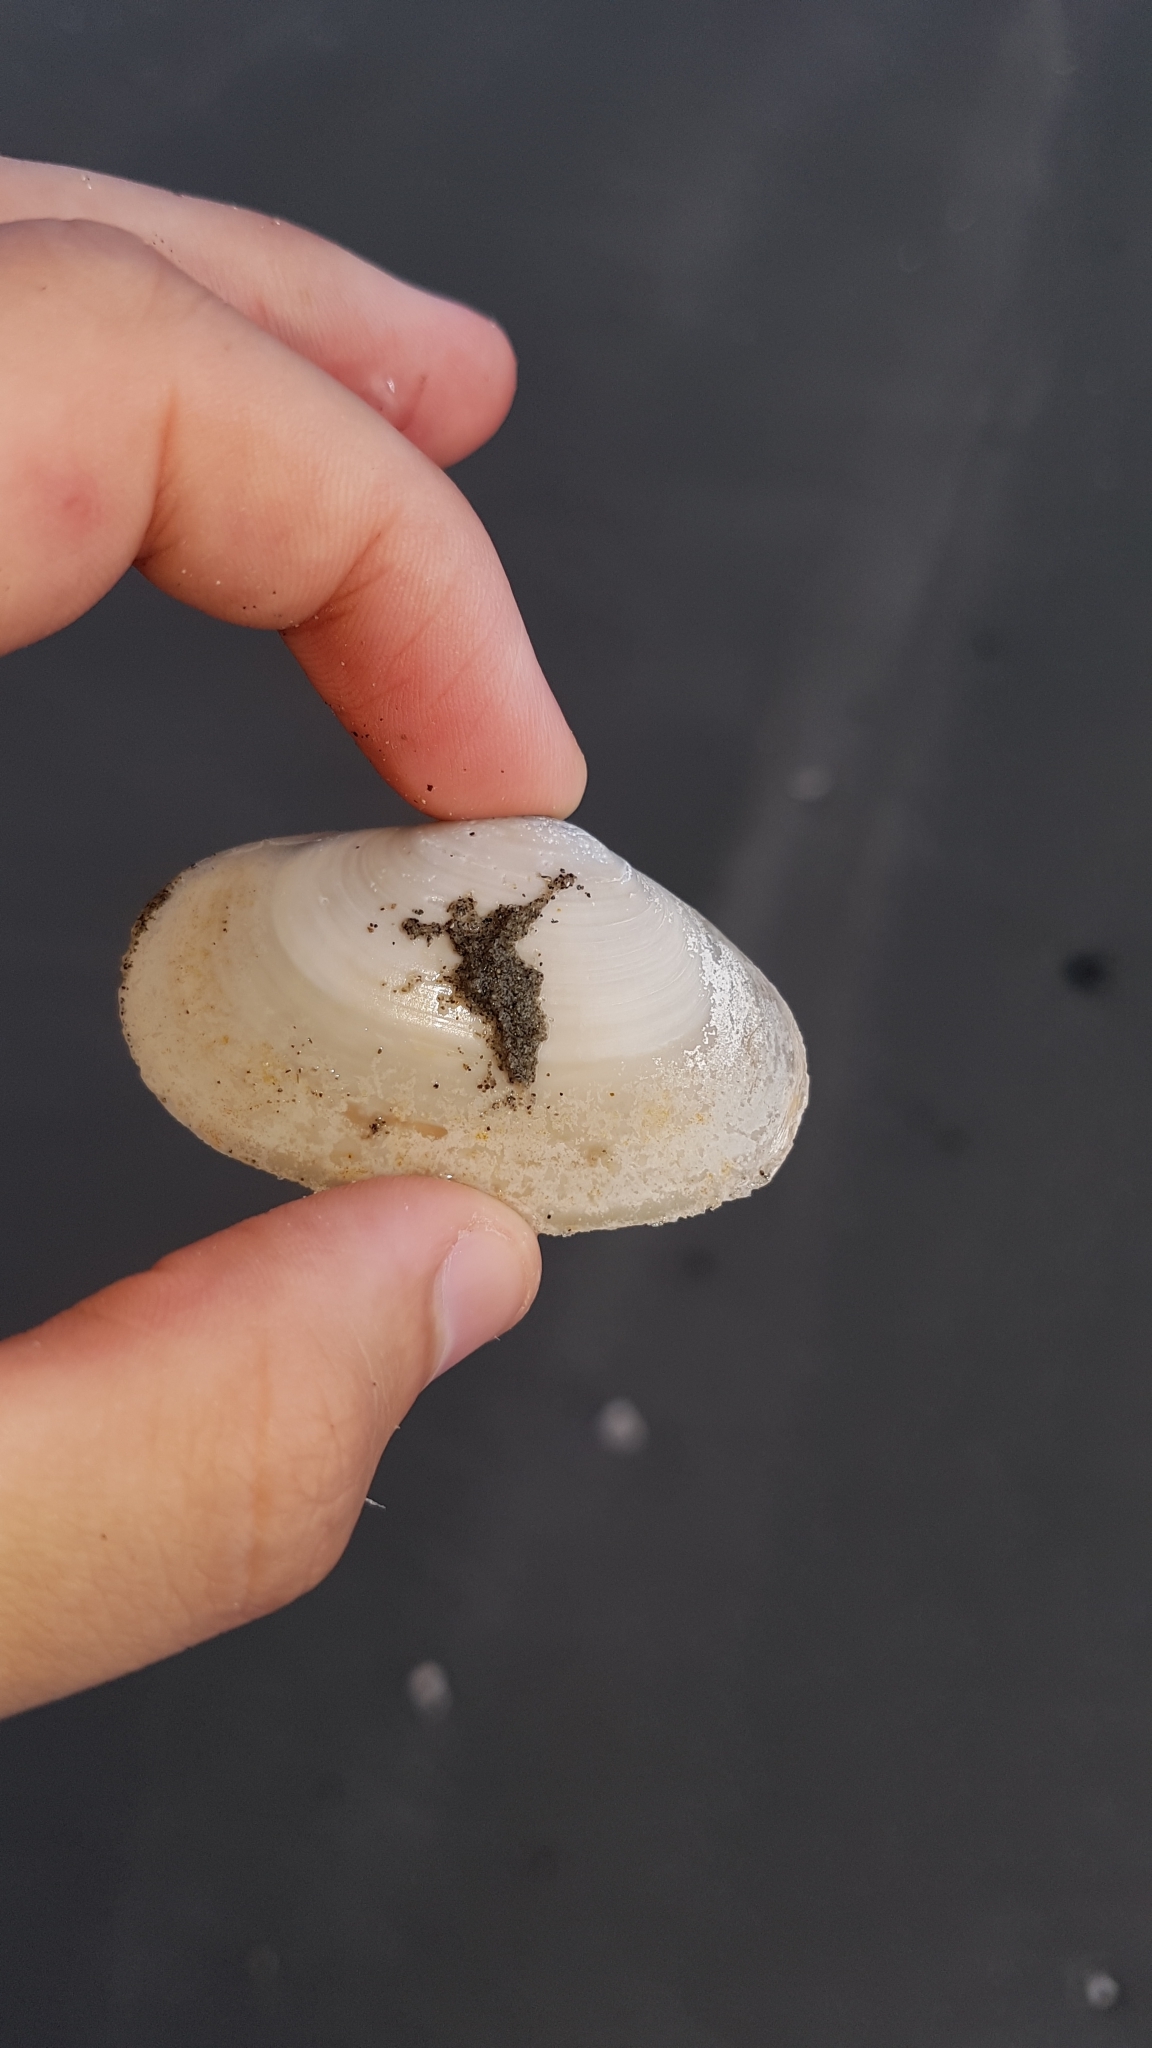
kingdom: Animalia
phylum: Mollusca
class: Bivalvia
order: Venerida
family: Mesodesmatidae
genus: Paphies
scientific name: Paphies australis
